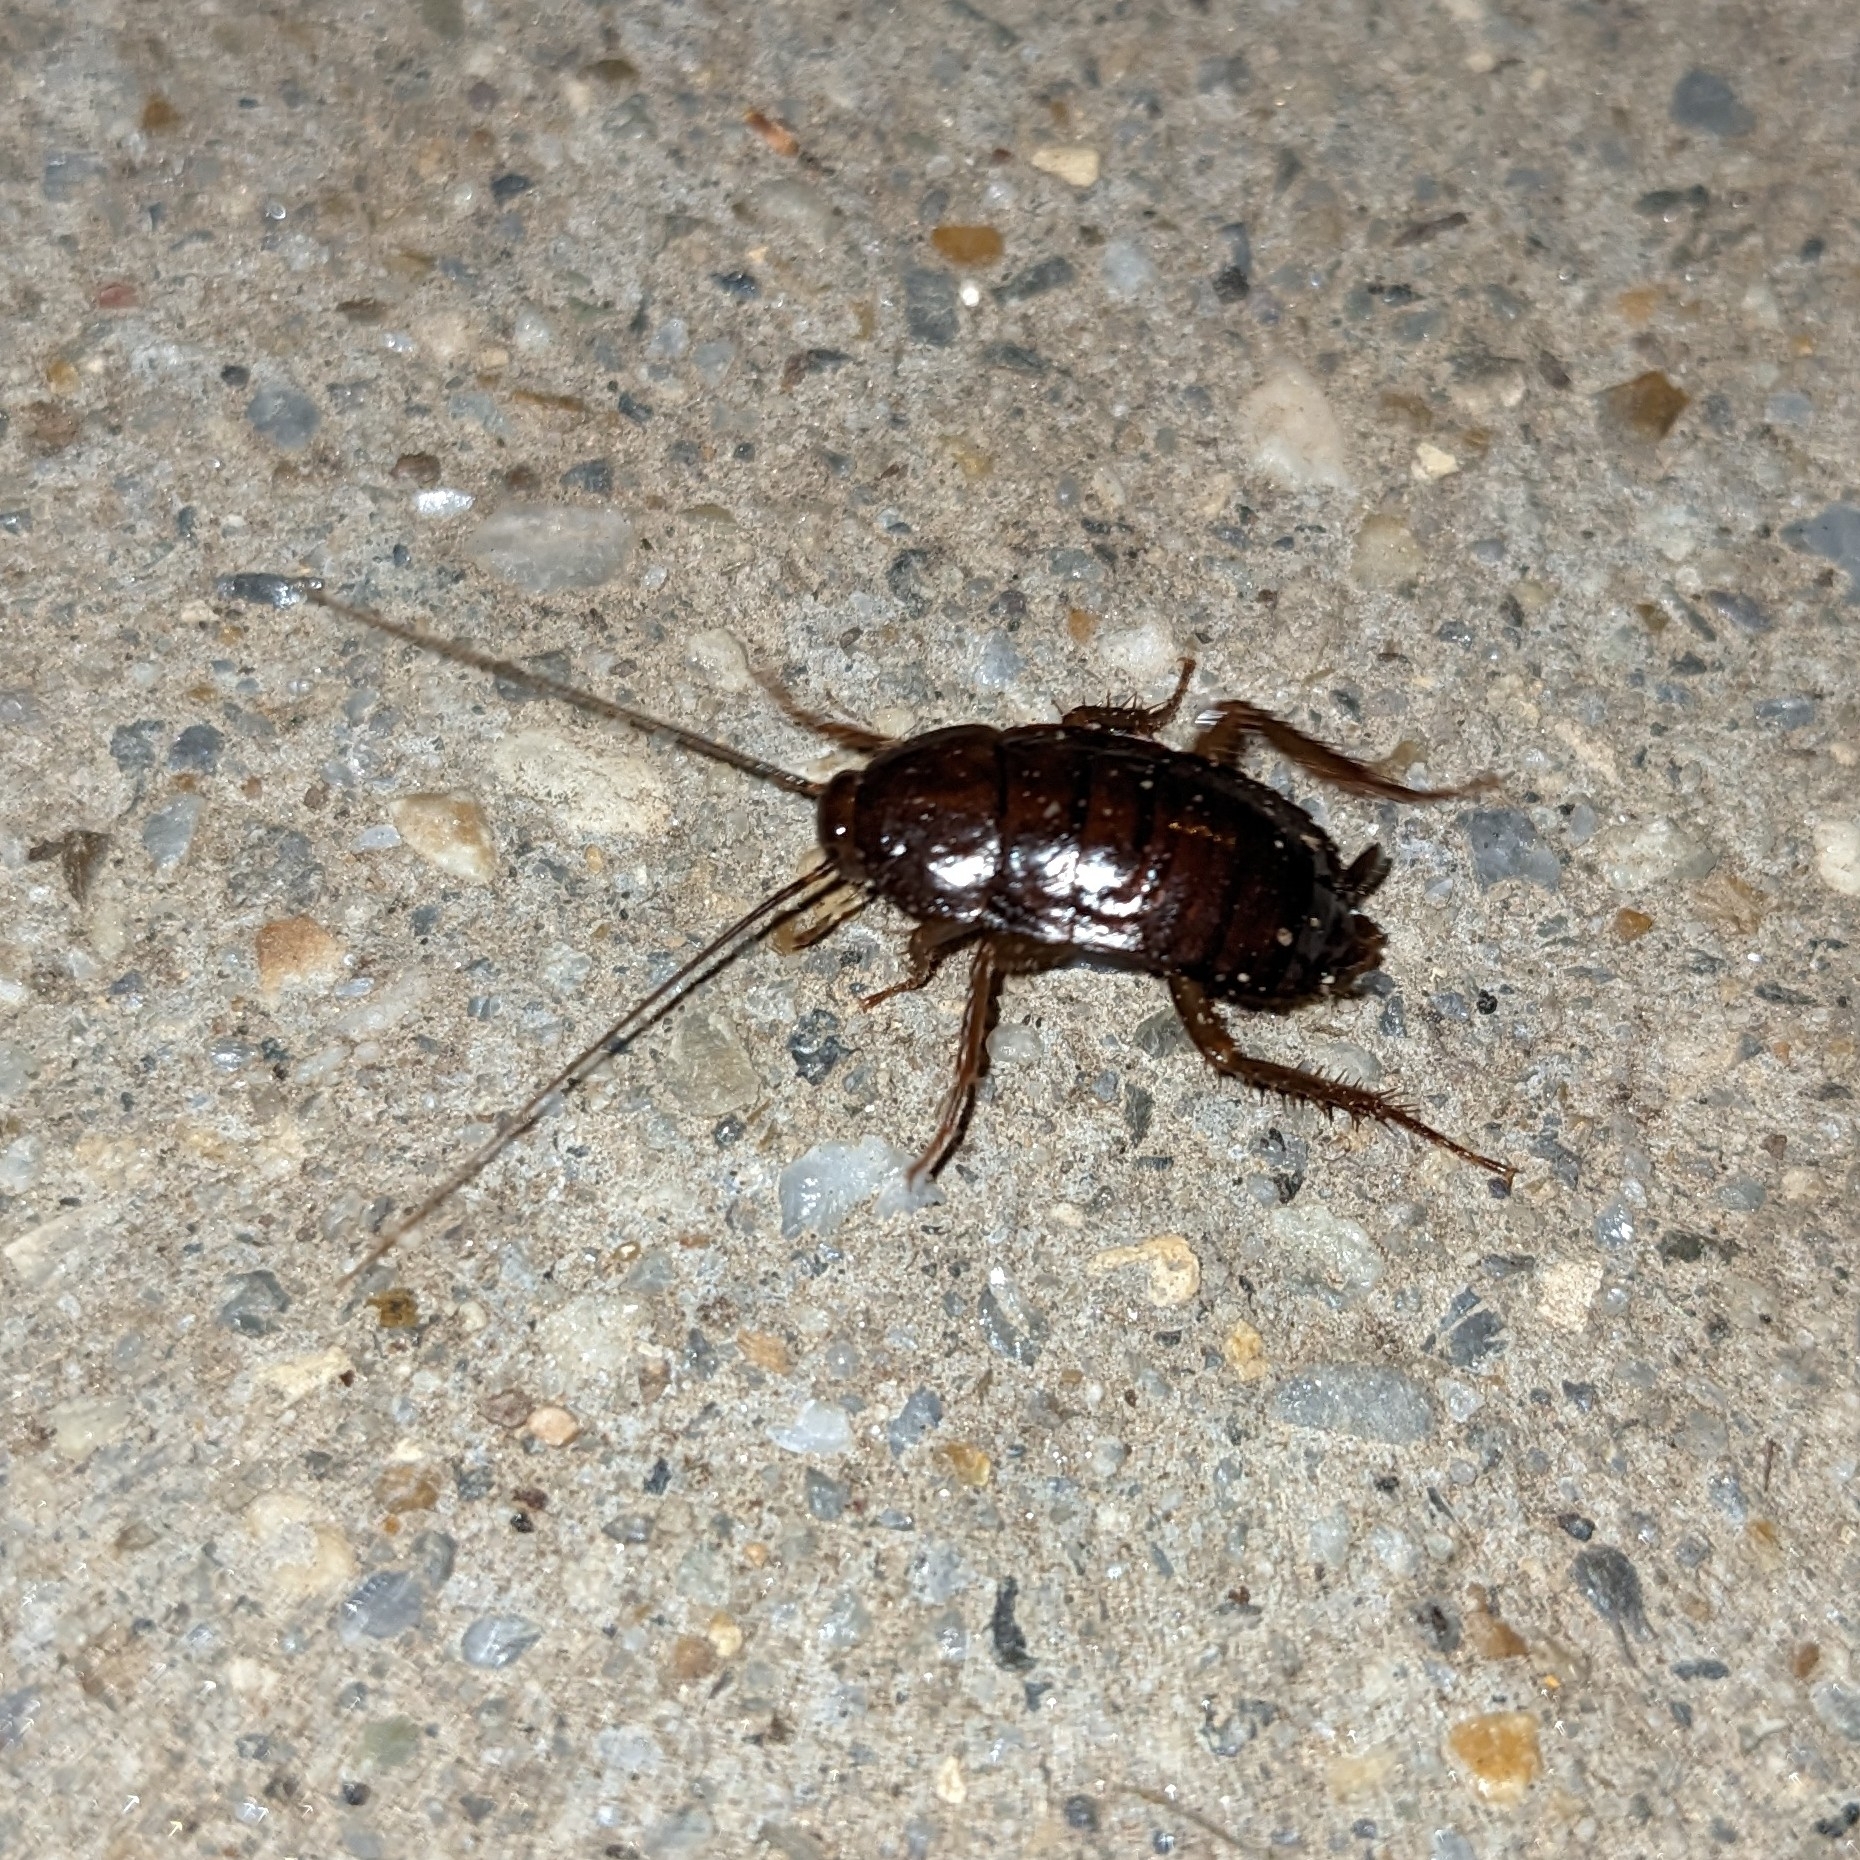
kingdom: Animalia
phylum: Arthropoda
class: Insecta
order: Blattodea
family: Blattidae
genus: Blatta
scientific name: Blatta orientalis
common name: Oriental cockroach
